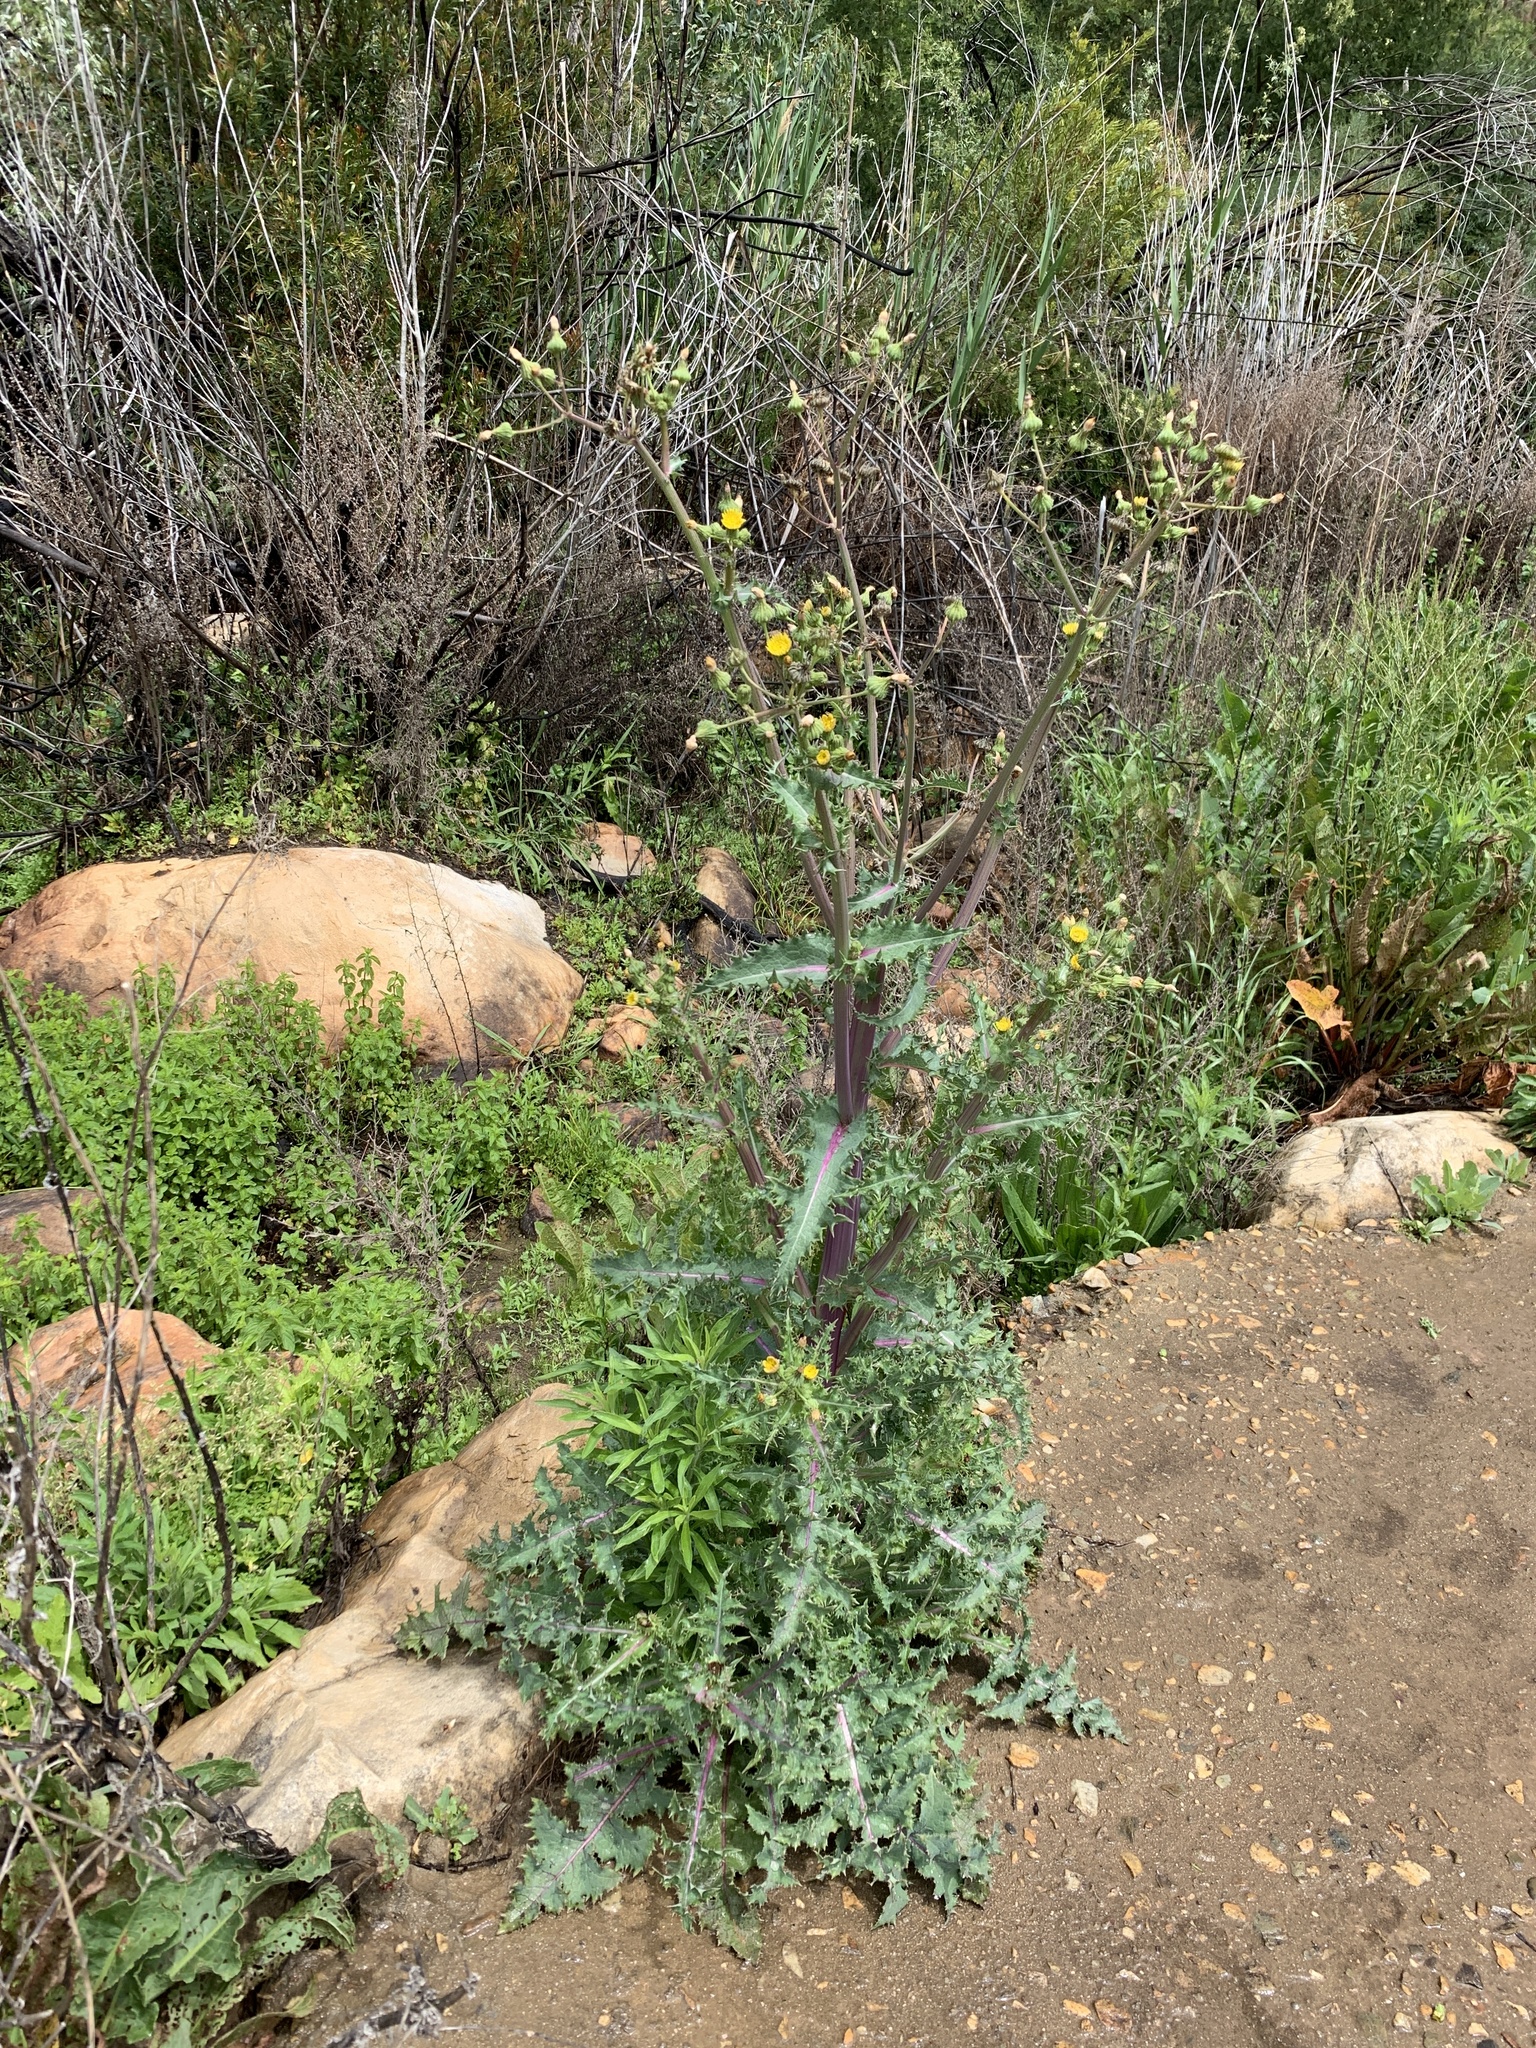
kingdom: Plantae
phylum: Tracheophyta
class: Magnoliopsida
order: Asterales
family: Asteraceae
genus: Sonchus
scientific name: Sonchus asper
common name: Prickly sow-thistle
